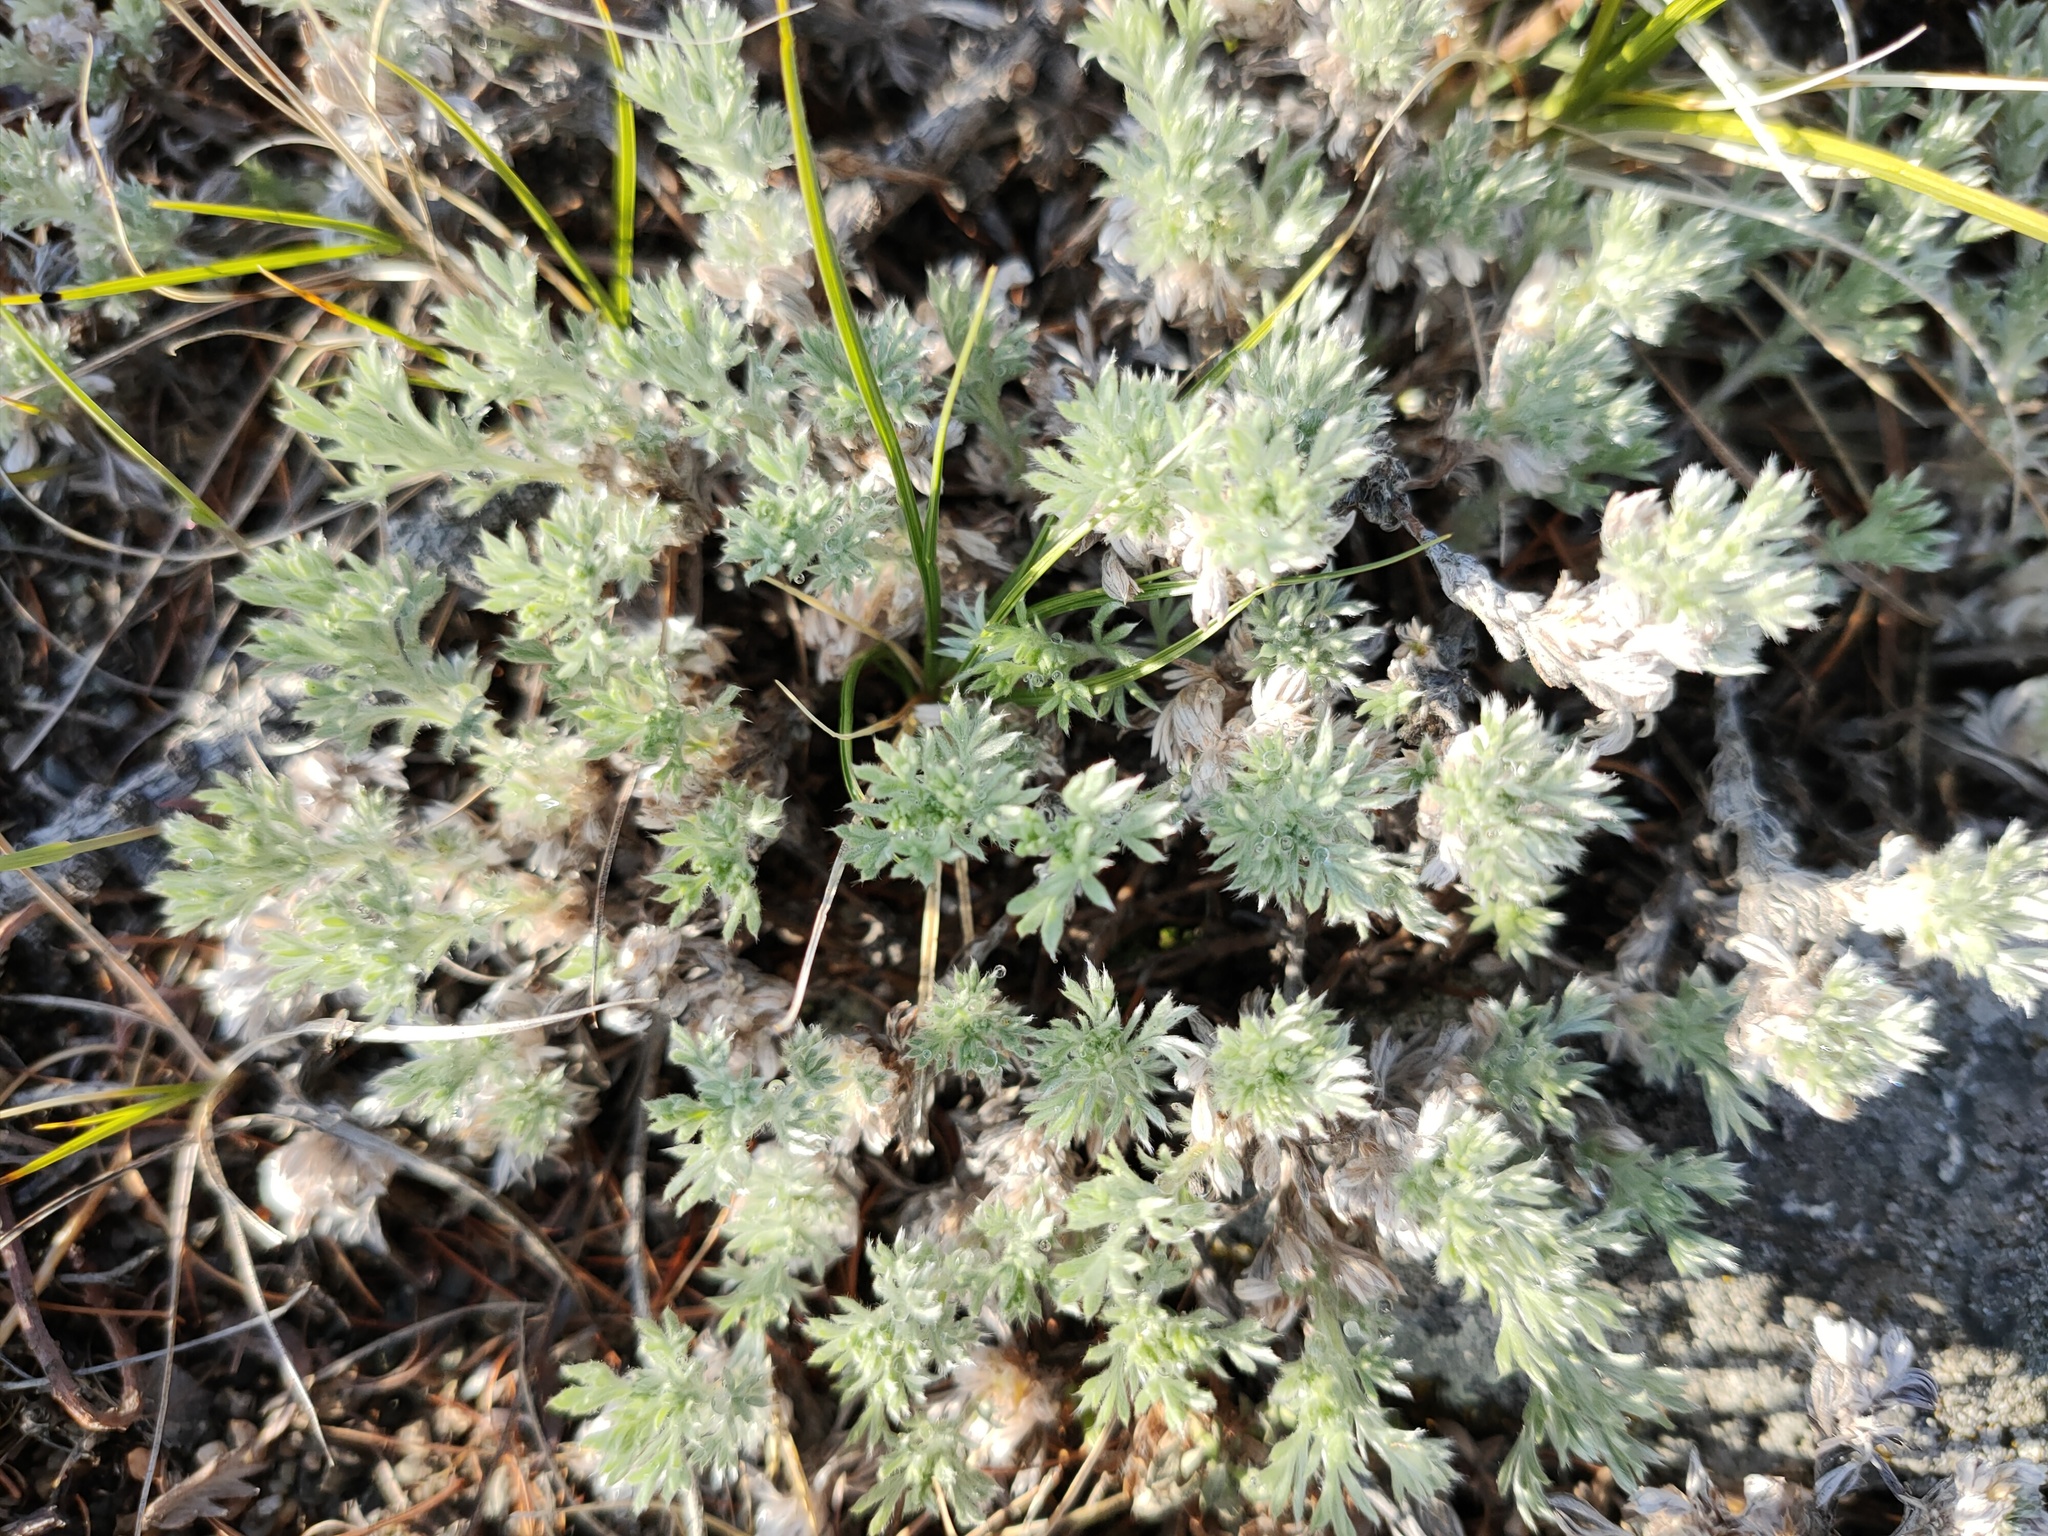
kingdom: Plantae
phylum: Tracheophyta
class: Magnoliopsida
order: Asterales
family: Asteraceae
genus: Artemisia
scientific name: Artemisia frigida
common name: Prairie sagewort
